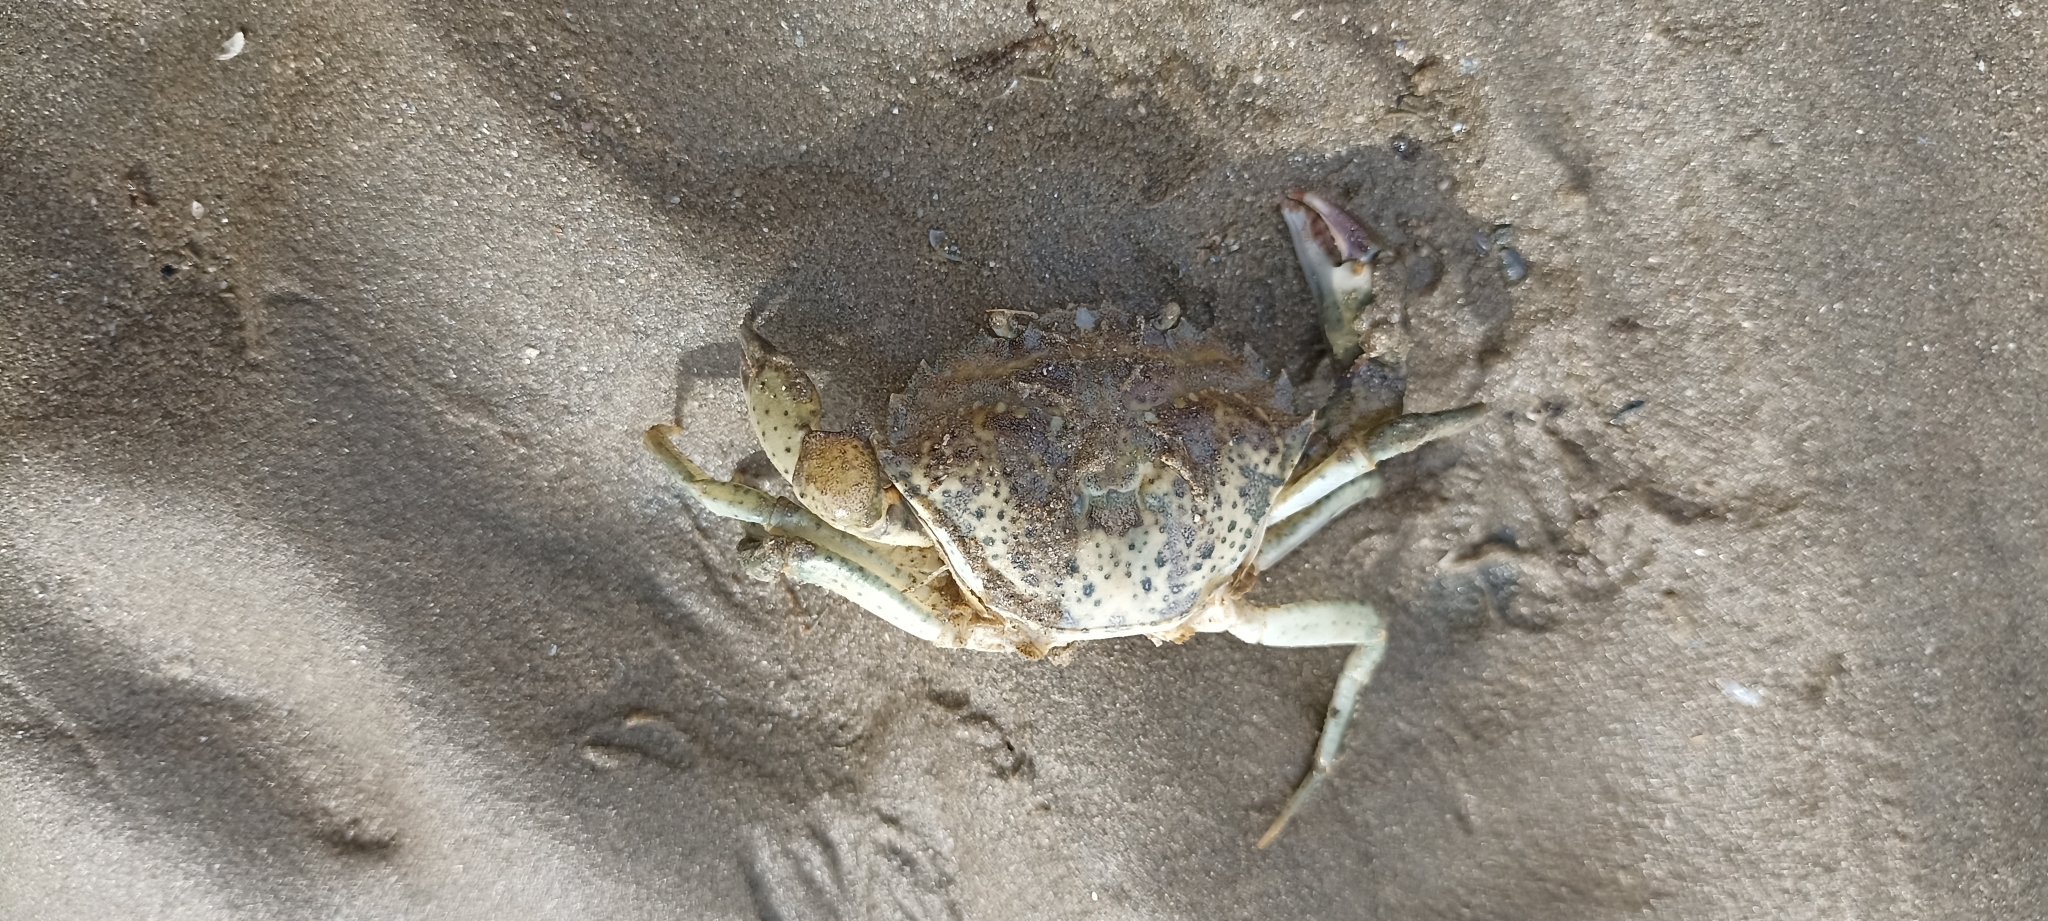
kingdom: Animalia
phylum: Arthropoda
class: Malacostraca
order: Decapoda
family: Carcinidae
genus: Carcinus
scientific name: Carcinus maenas
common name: European green crab
